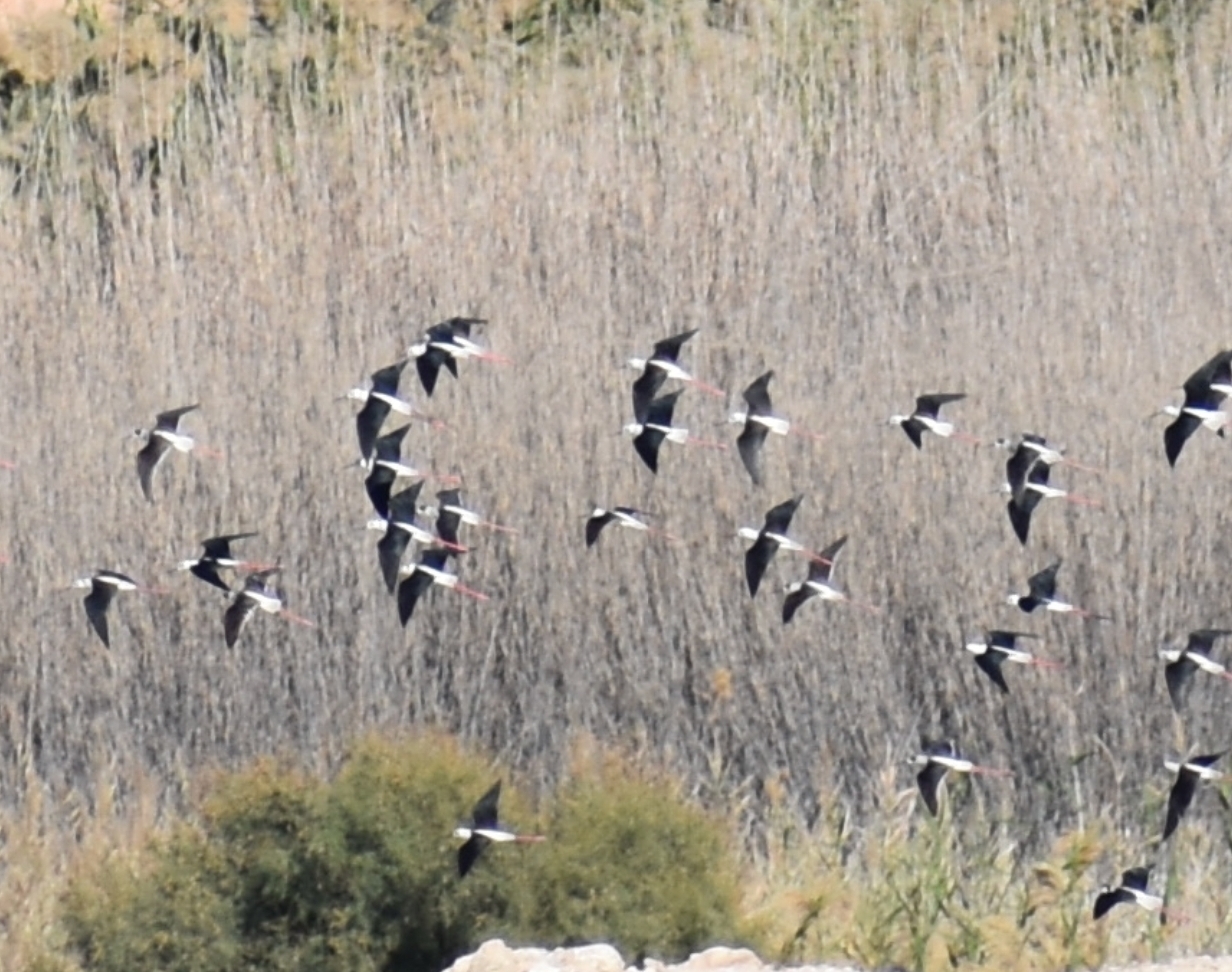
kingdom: Animalia
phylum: Chordata
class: Aves
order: Charadriiformes
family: Recurvirostridae
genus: Himantopus
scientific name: Himantopus himantopus
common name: Black-winged stilt
